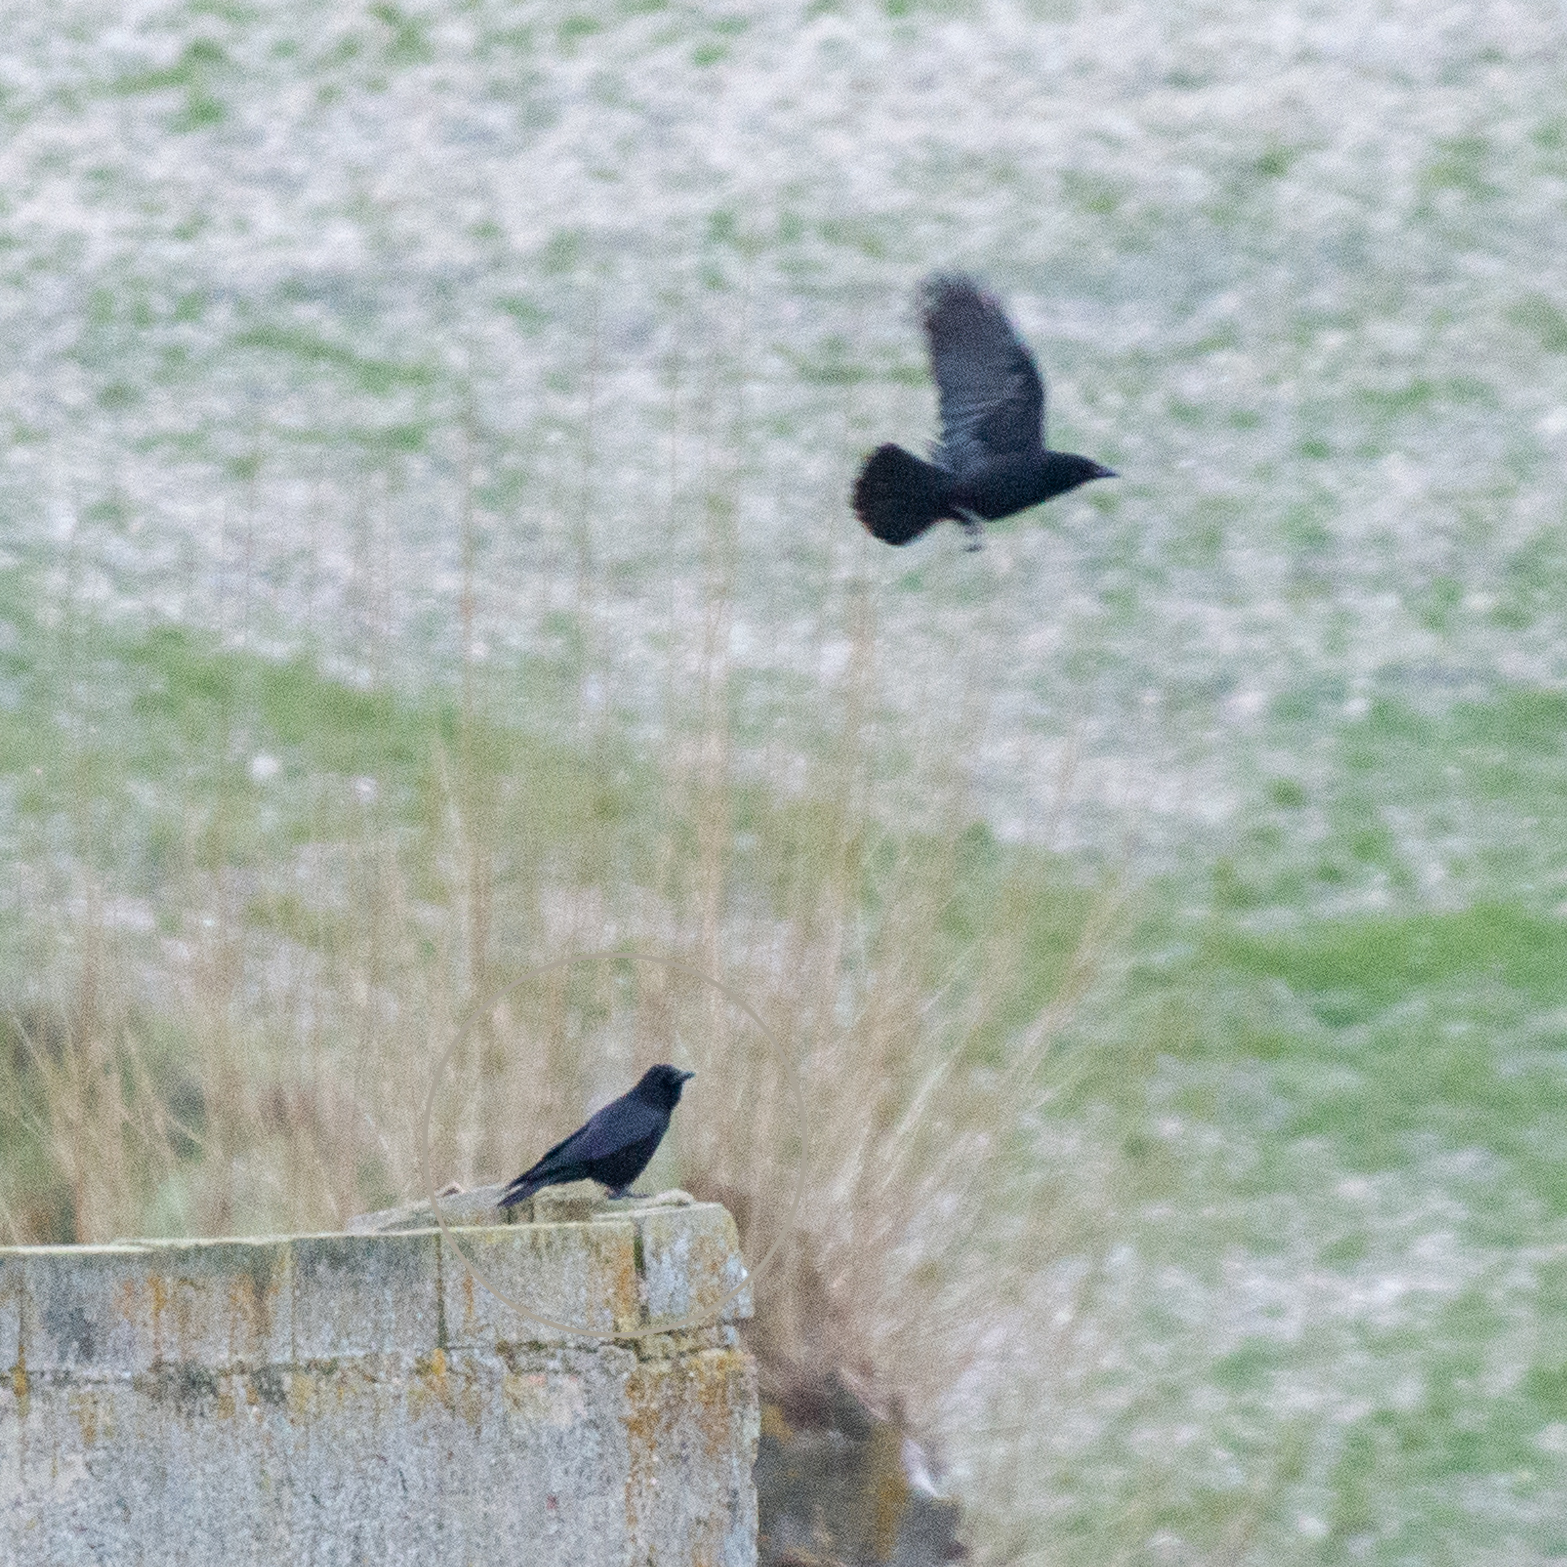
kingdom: Animalia
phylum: Chordata
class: Aves
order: Passeriformes
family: Corvidae
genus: Corvus
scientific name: Corvus corone
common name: Carrion crow
